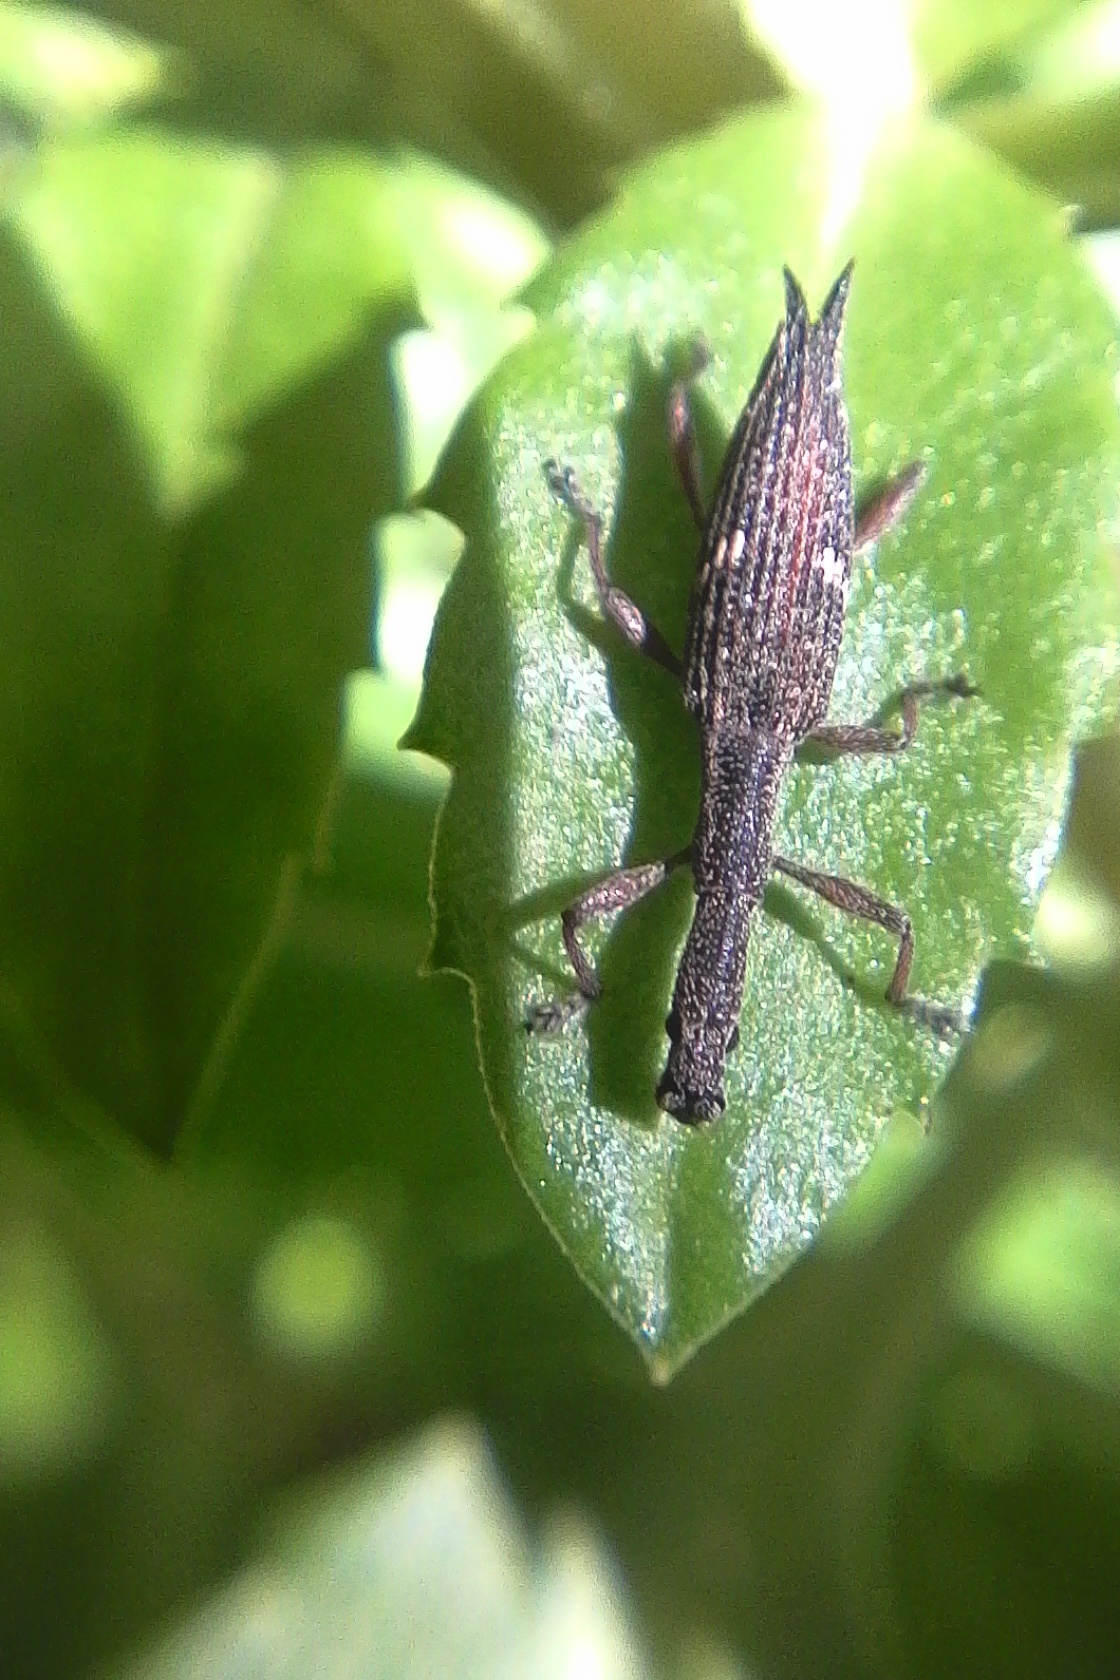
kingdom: Animalia
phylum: Arthropoda
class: Insecta
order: Coleoptera
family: Curculionidae
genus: Rhadinosomus
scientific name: Rhadinosomus acuminatus
